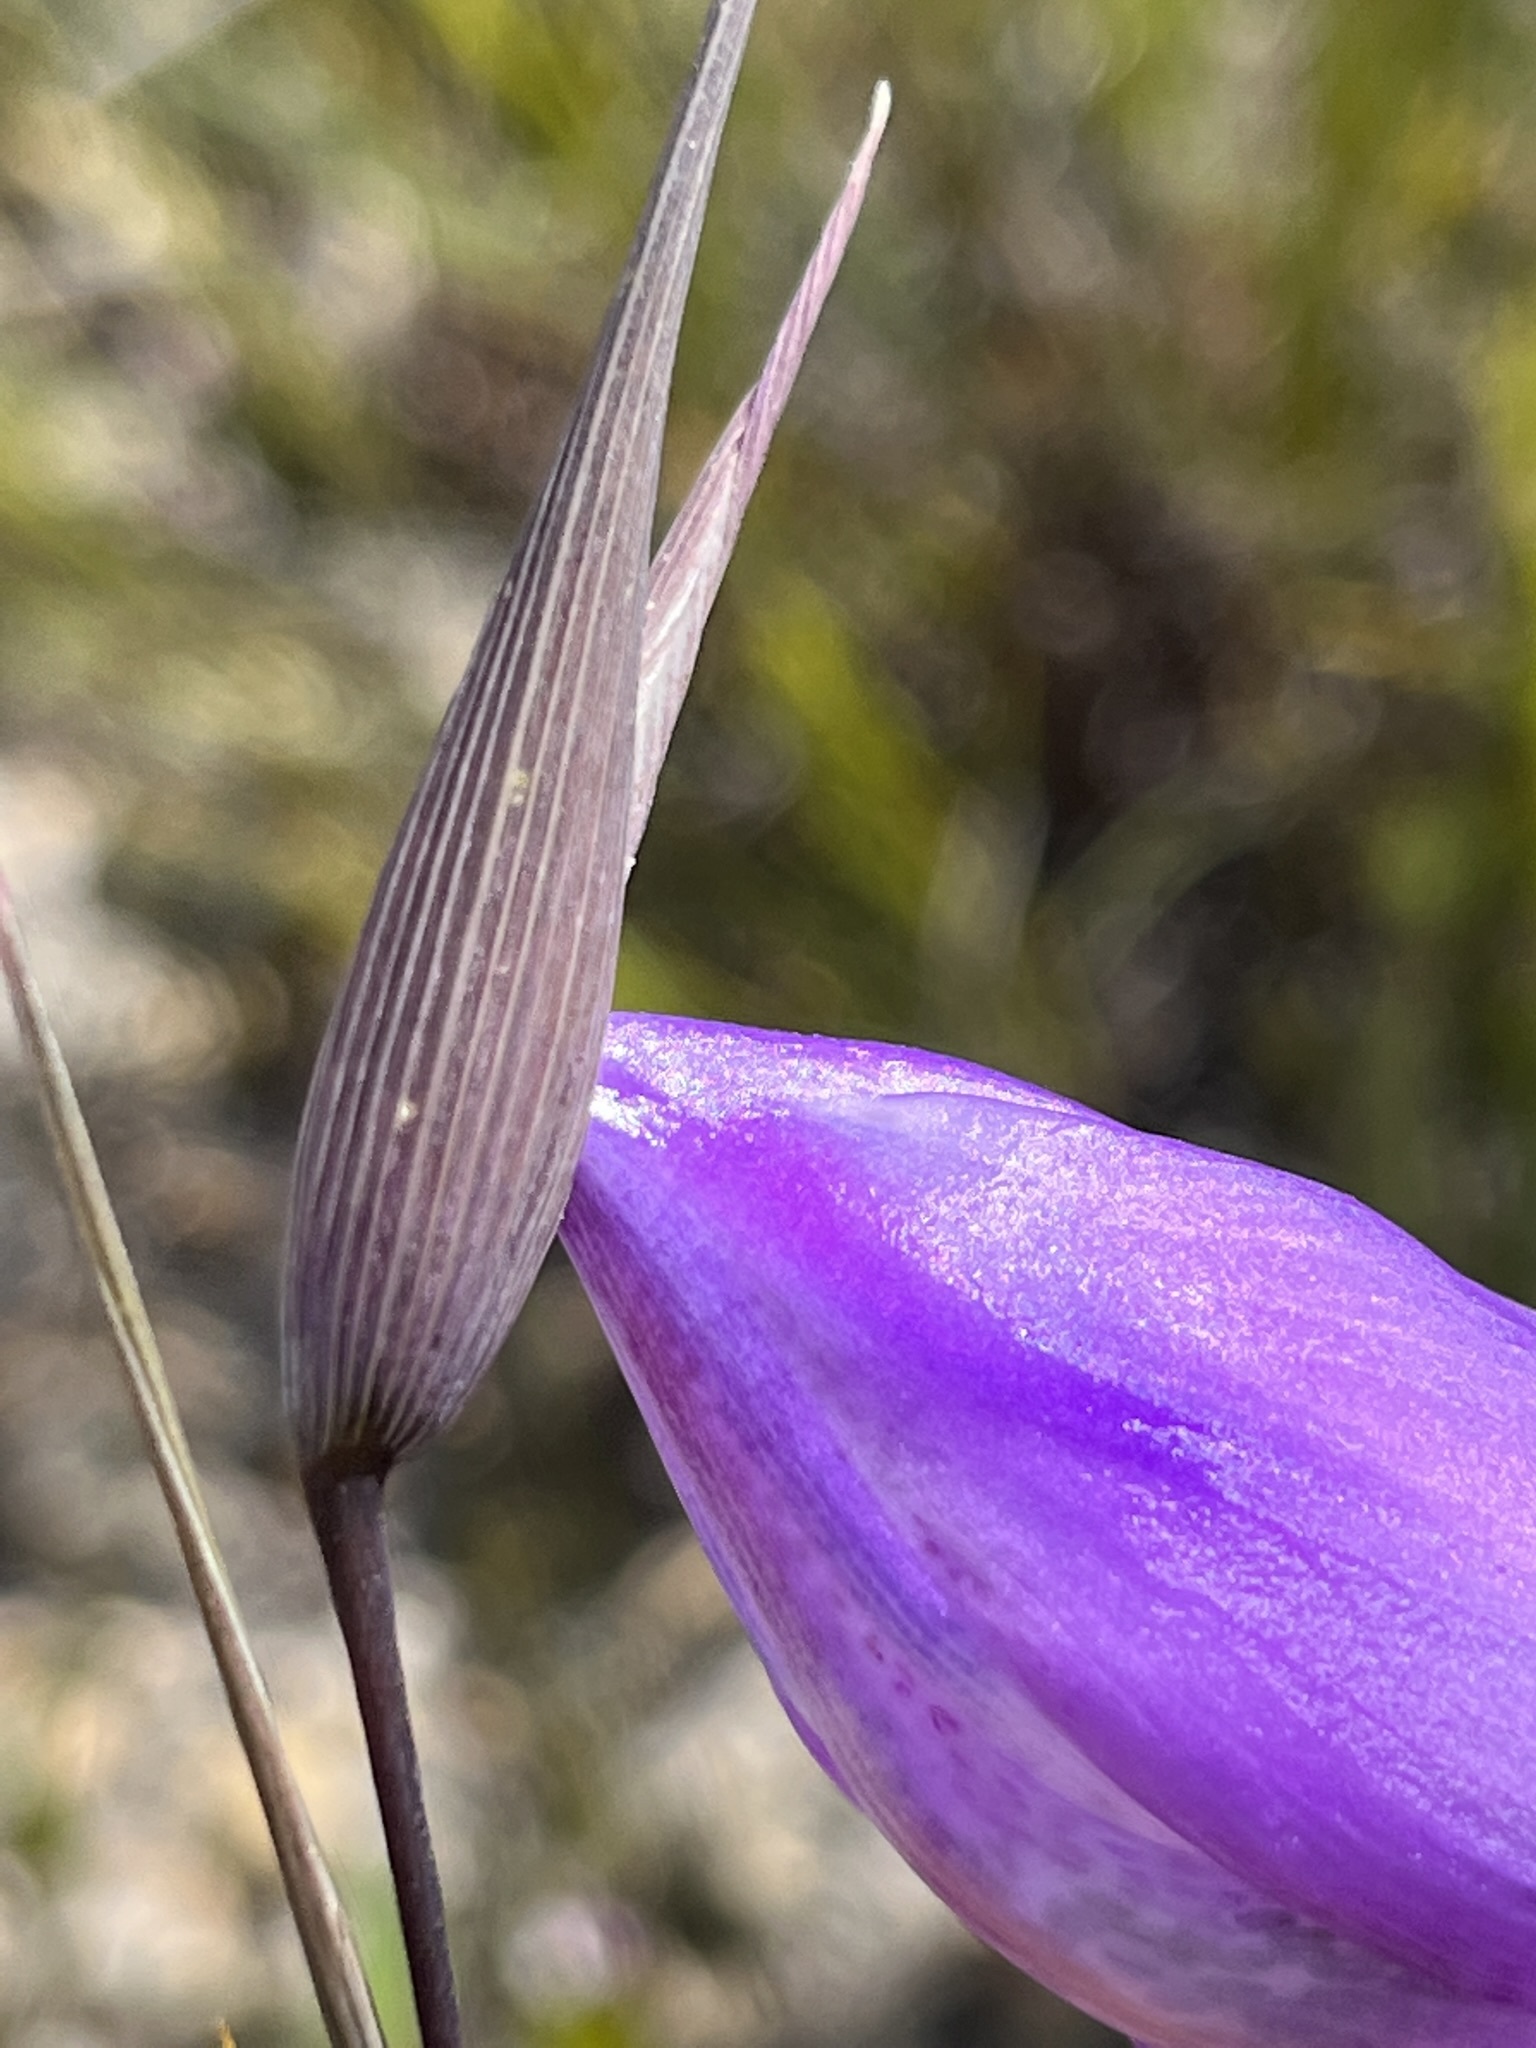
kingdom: Plantae
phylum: Tracheophyta
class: Liliopsida
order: Asparagales
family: Iridaceae
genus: Gladiolus
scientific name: Gladiolus bullatus
